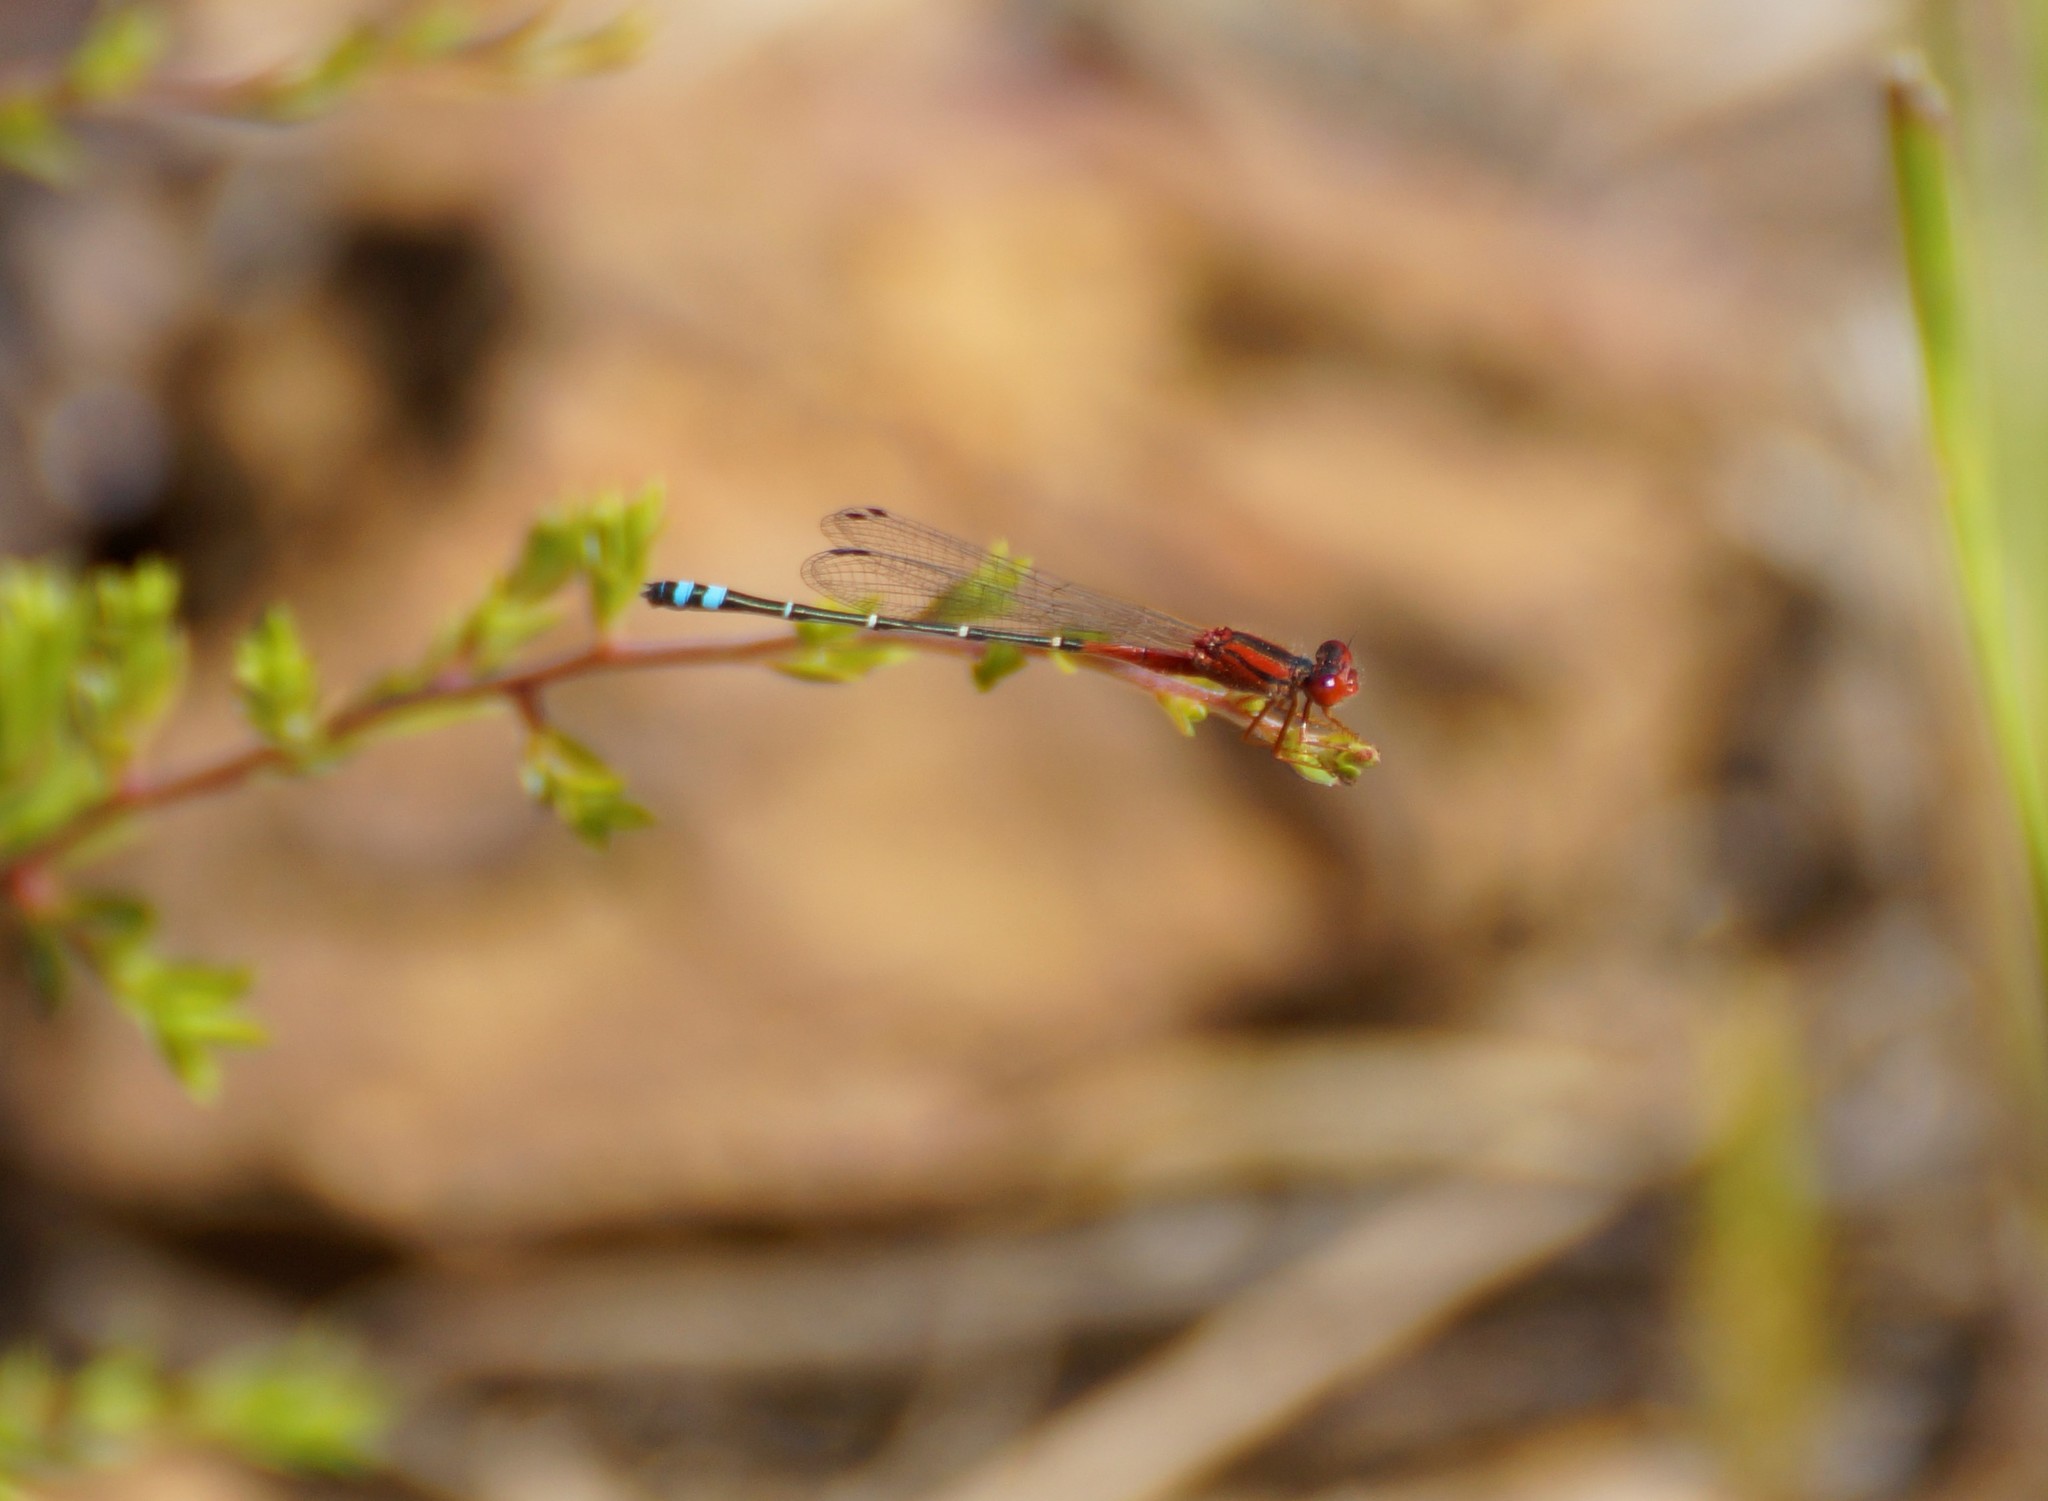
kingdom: Animalia
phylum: Arthropoda
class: Insecta
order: Odonata
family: Coenagrionidae
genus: Xanthagrion
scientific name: Xanthagrion erythroneurum
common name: Red and blue damsel
